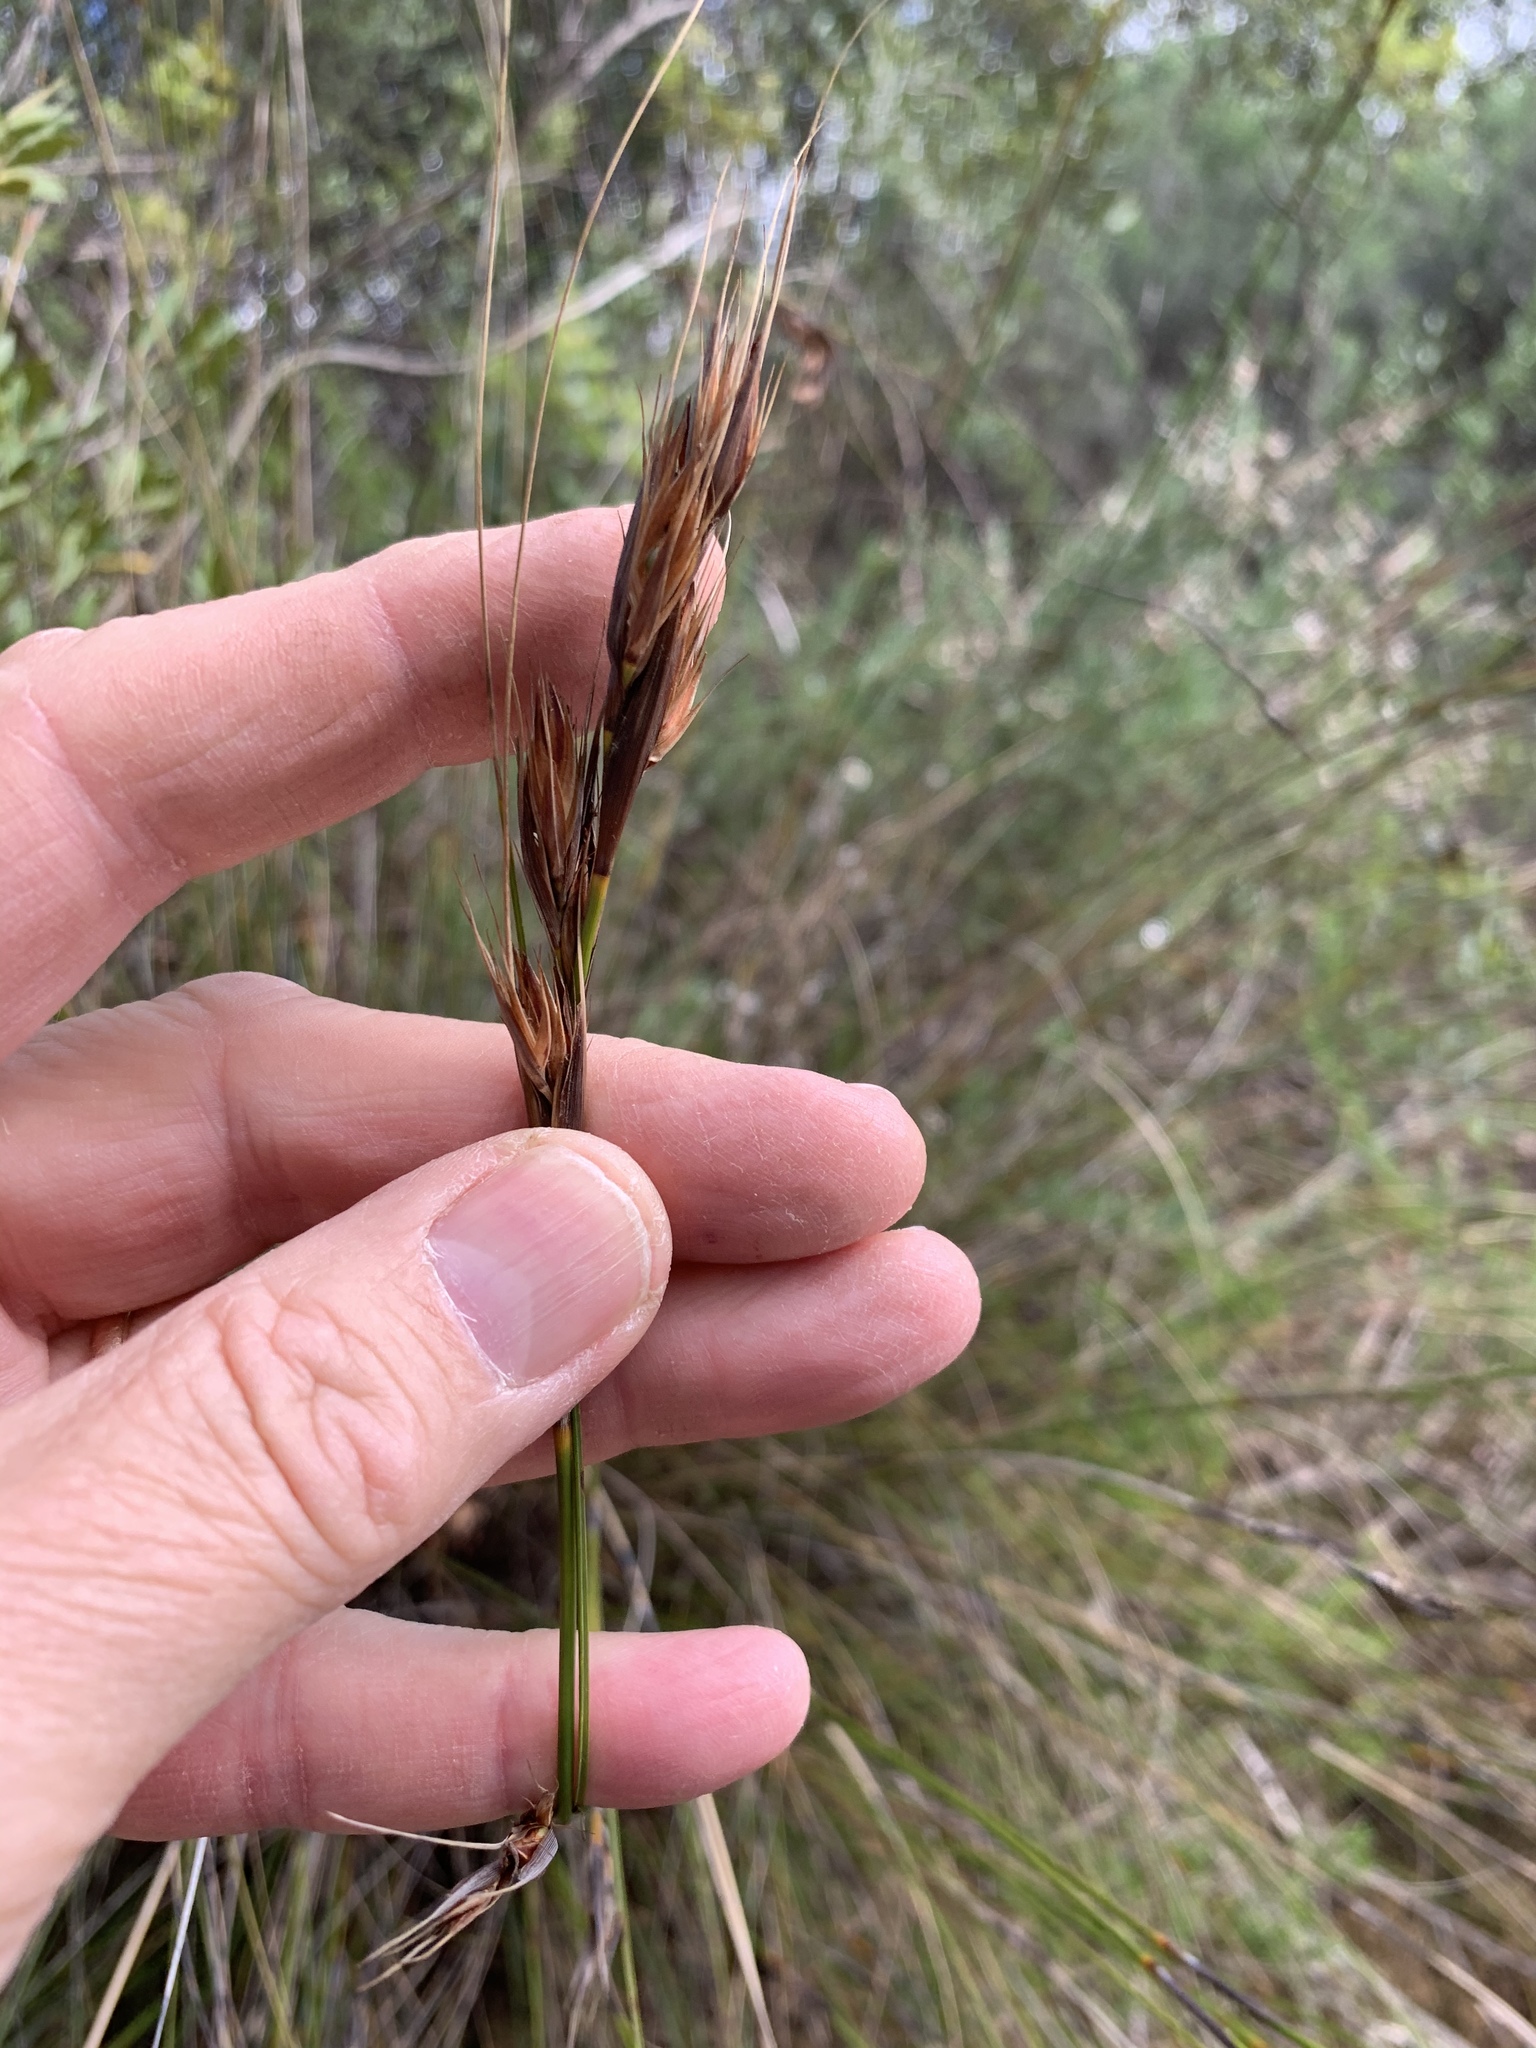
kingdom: Plantae
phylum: Tracheophyta
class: Liliopsida
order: Poales
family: Cyperaceae
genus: Tetraria
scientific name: Tetraria ustulata
